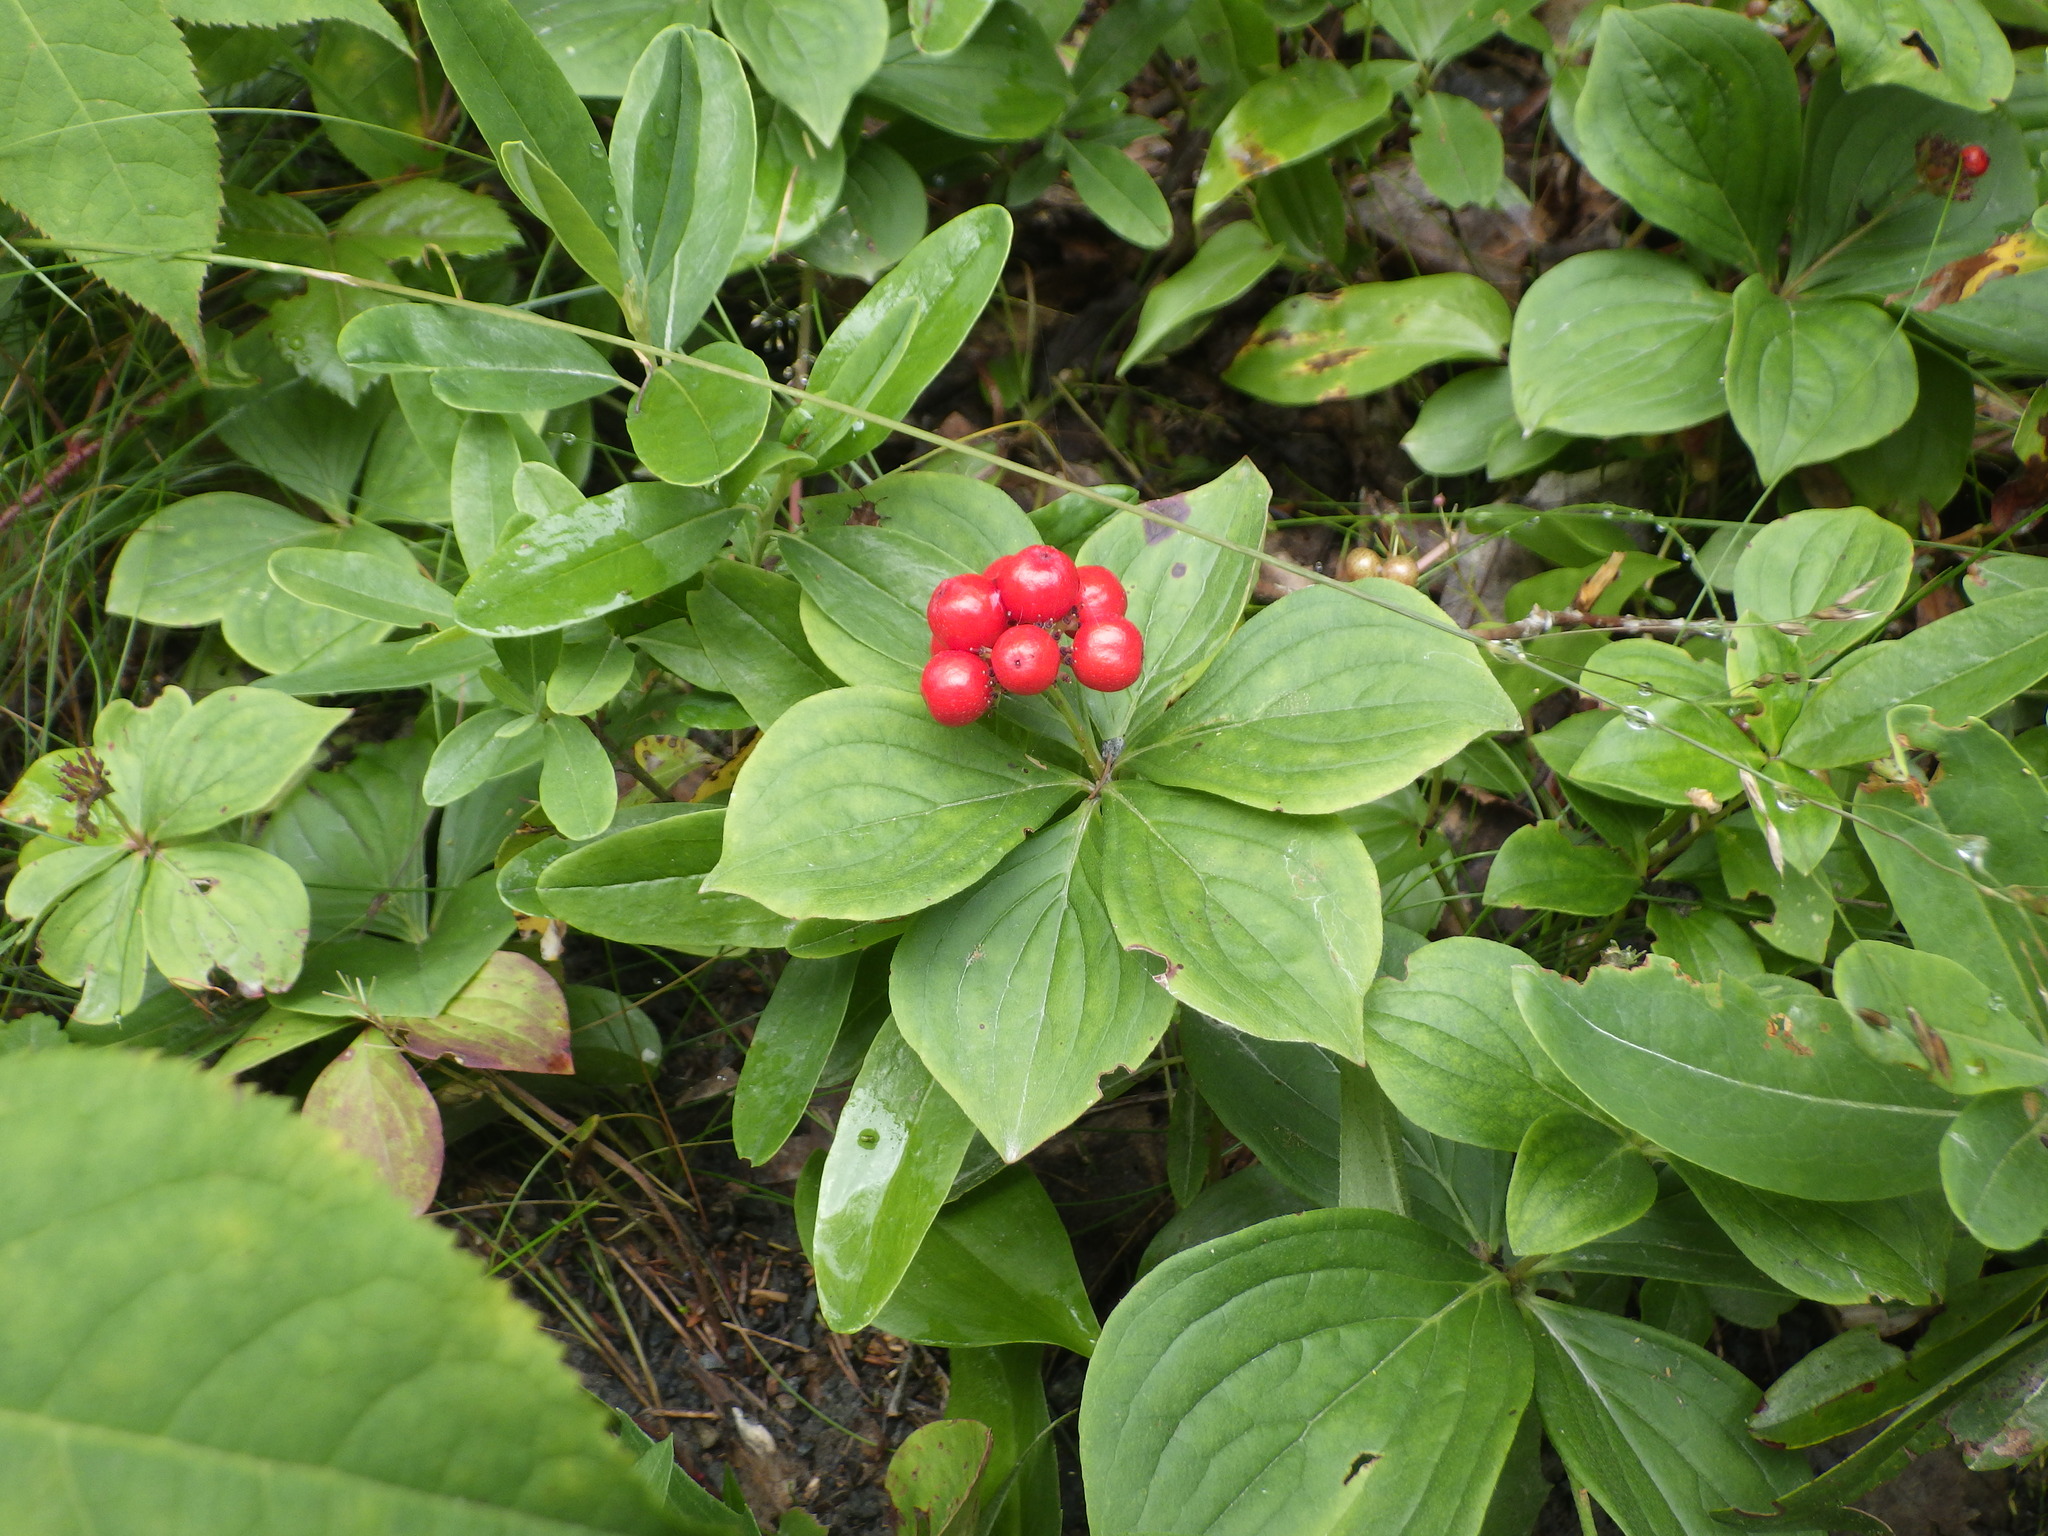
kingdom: Plantae
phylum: Tracheophyta
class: Magnoliopsida
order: Cornales
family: Cornaceae
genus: Cornus
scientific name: Cornus canadensis
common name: Creeping dogwood
